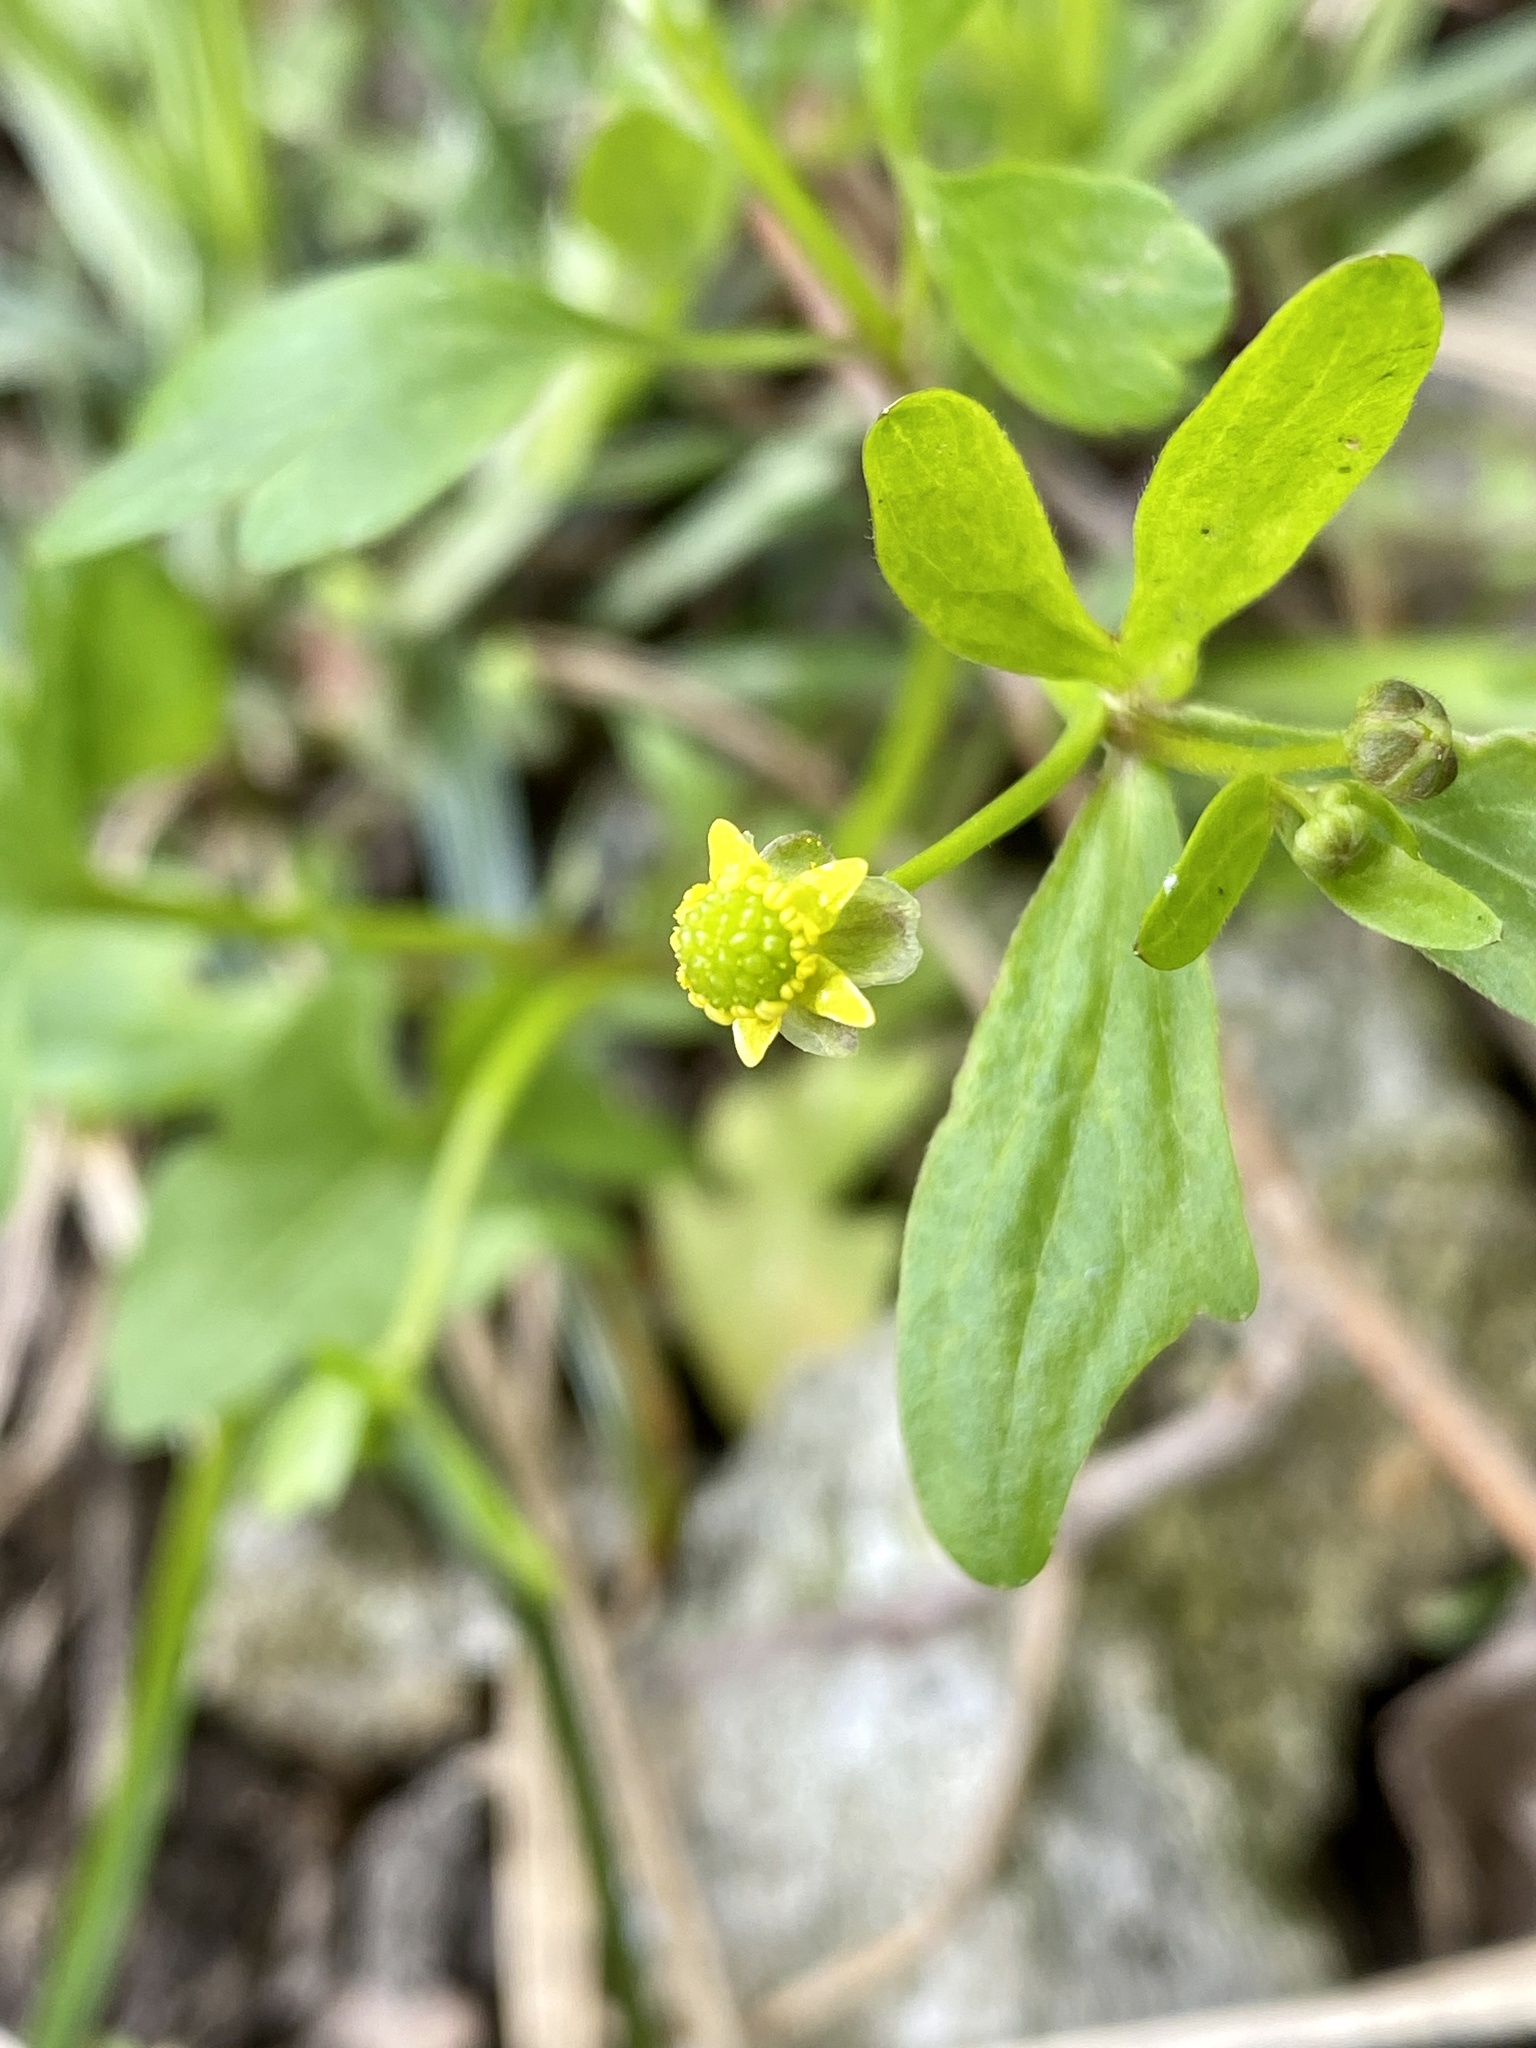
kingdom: Plantae
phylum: Tracheophyta
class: Magnoliopsida
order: Ranunculales
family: Ranunculaceae
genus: Ranunculus
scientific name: Ranunculus abortivus
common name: Early wood buttercup
